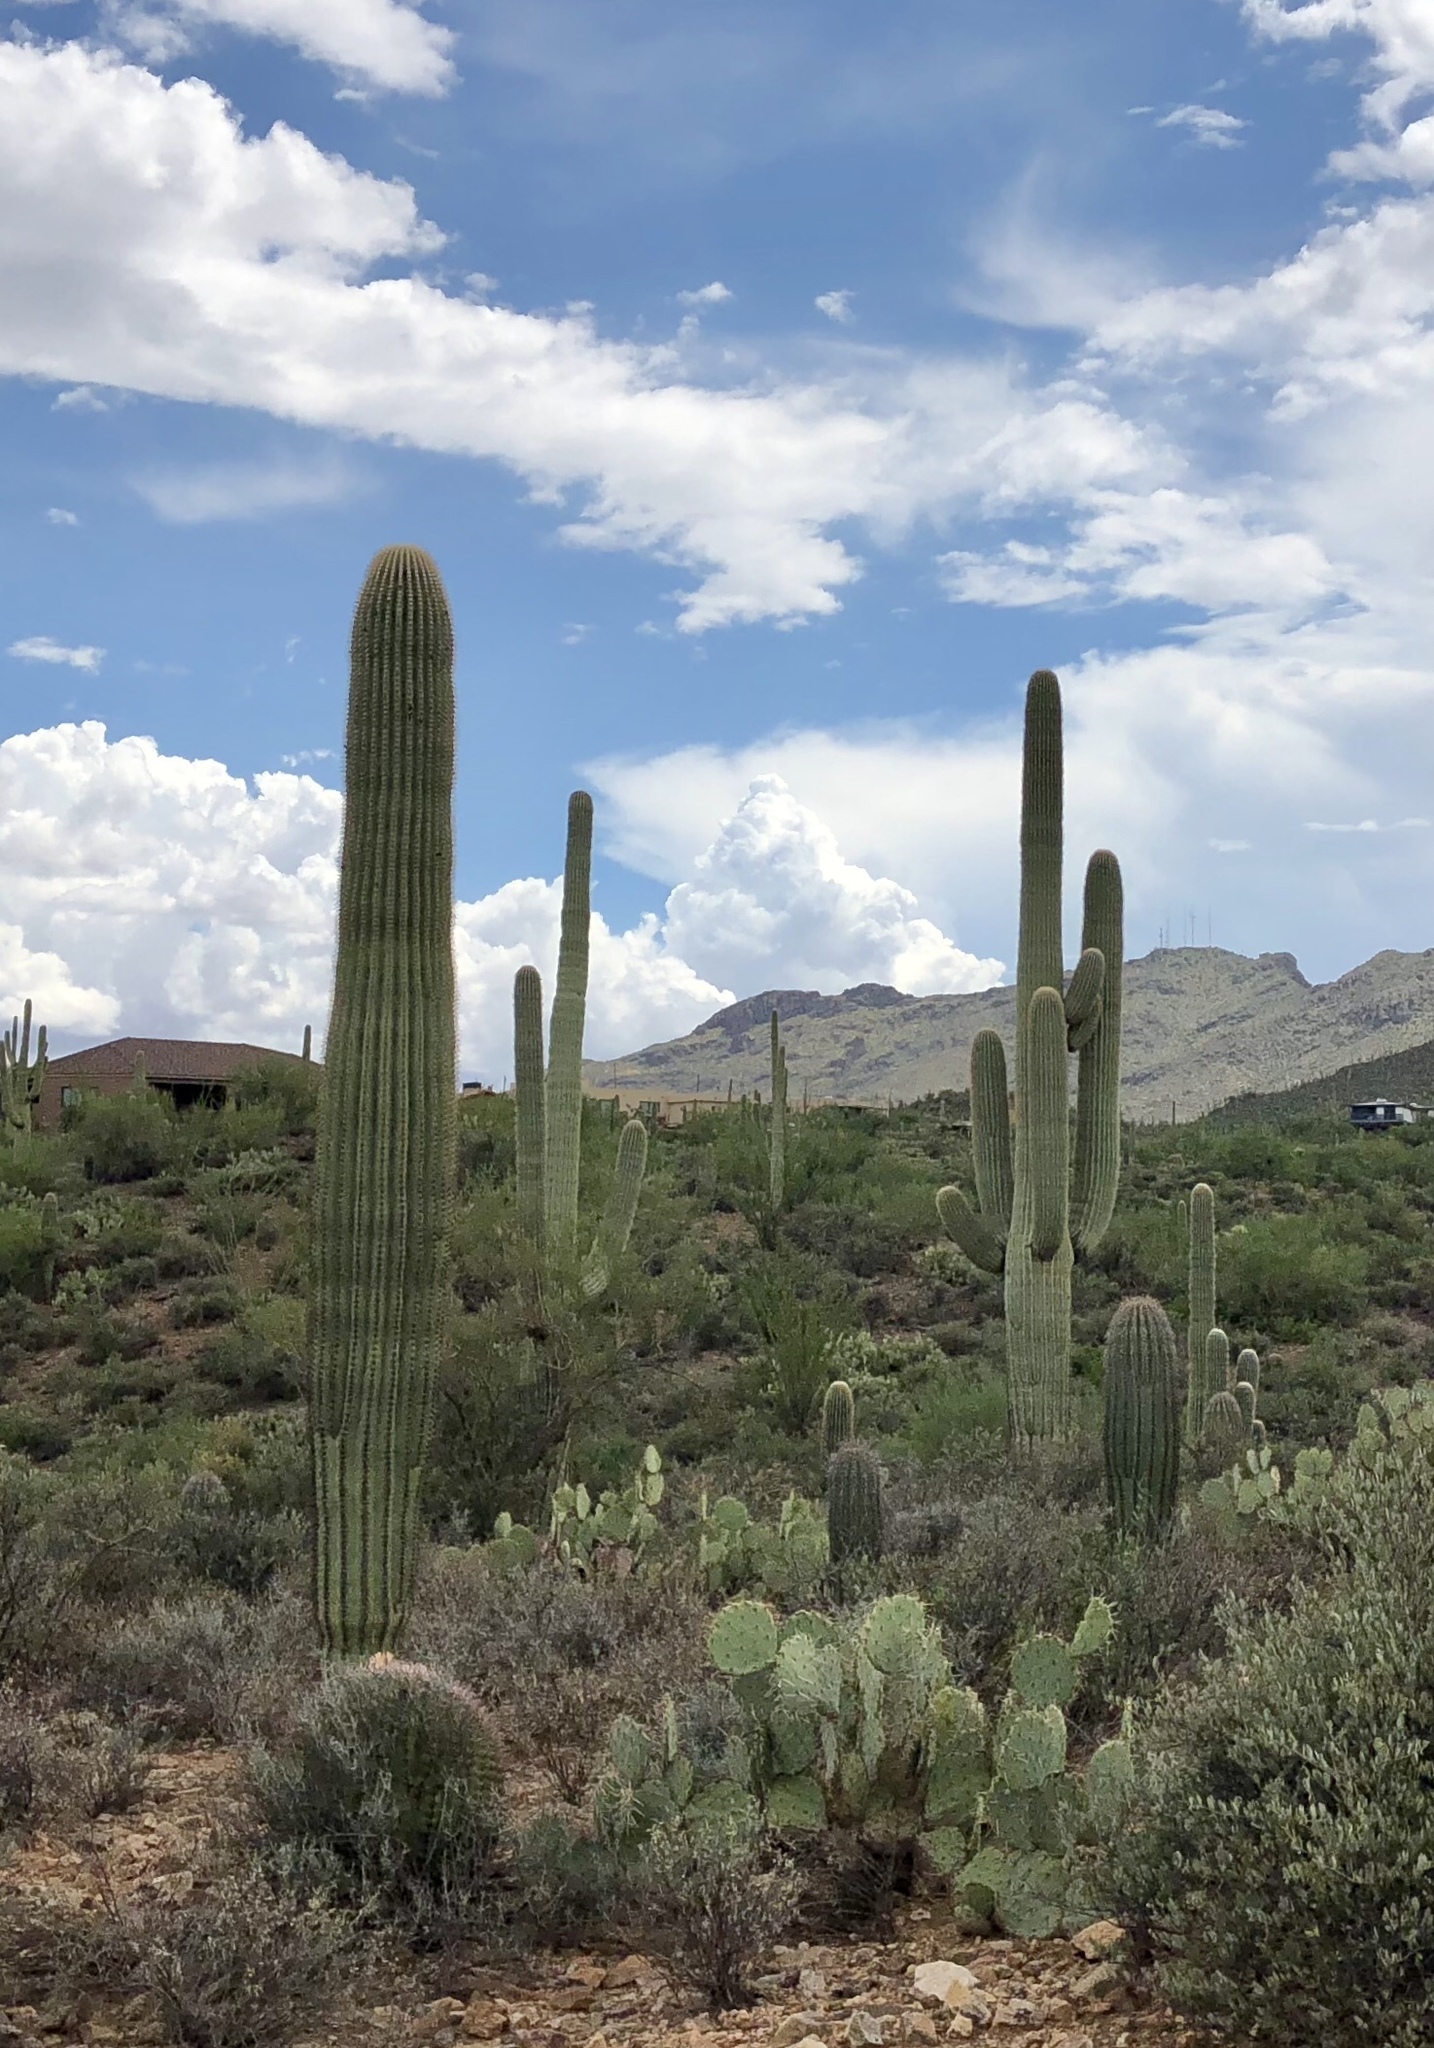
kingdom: Plantae
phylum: Tracheophyta
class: Magnoliopsida
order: Caryophyllales
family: Cactaceae
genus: Carnegiea
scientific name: Carnegiea gigantea
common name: Saguaro
